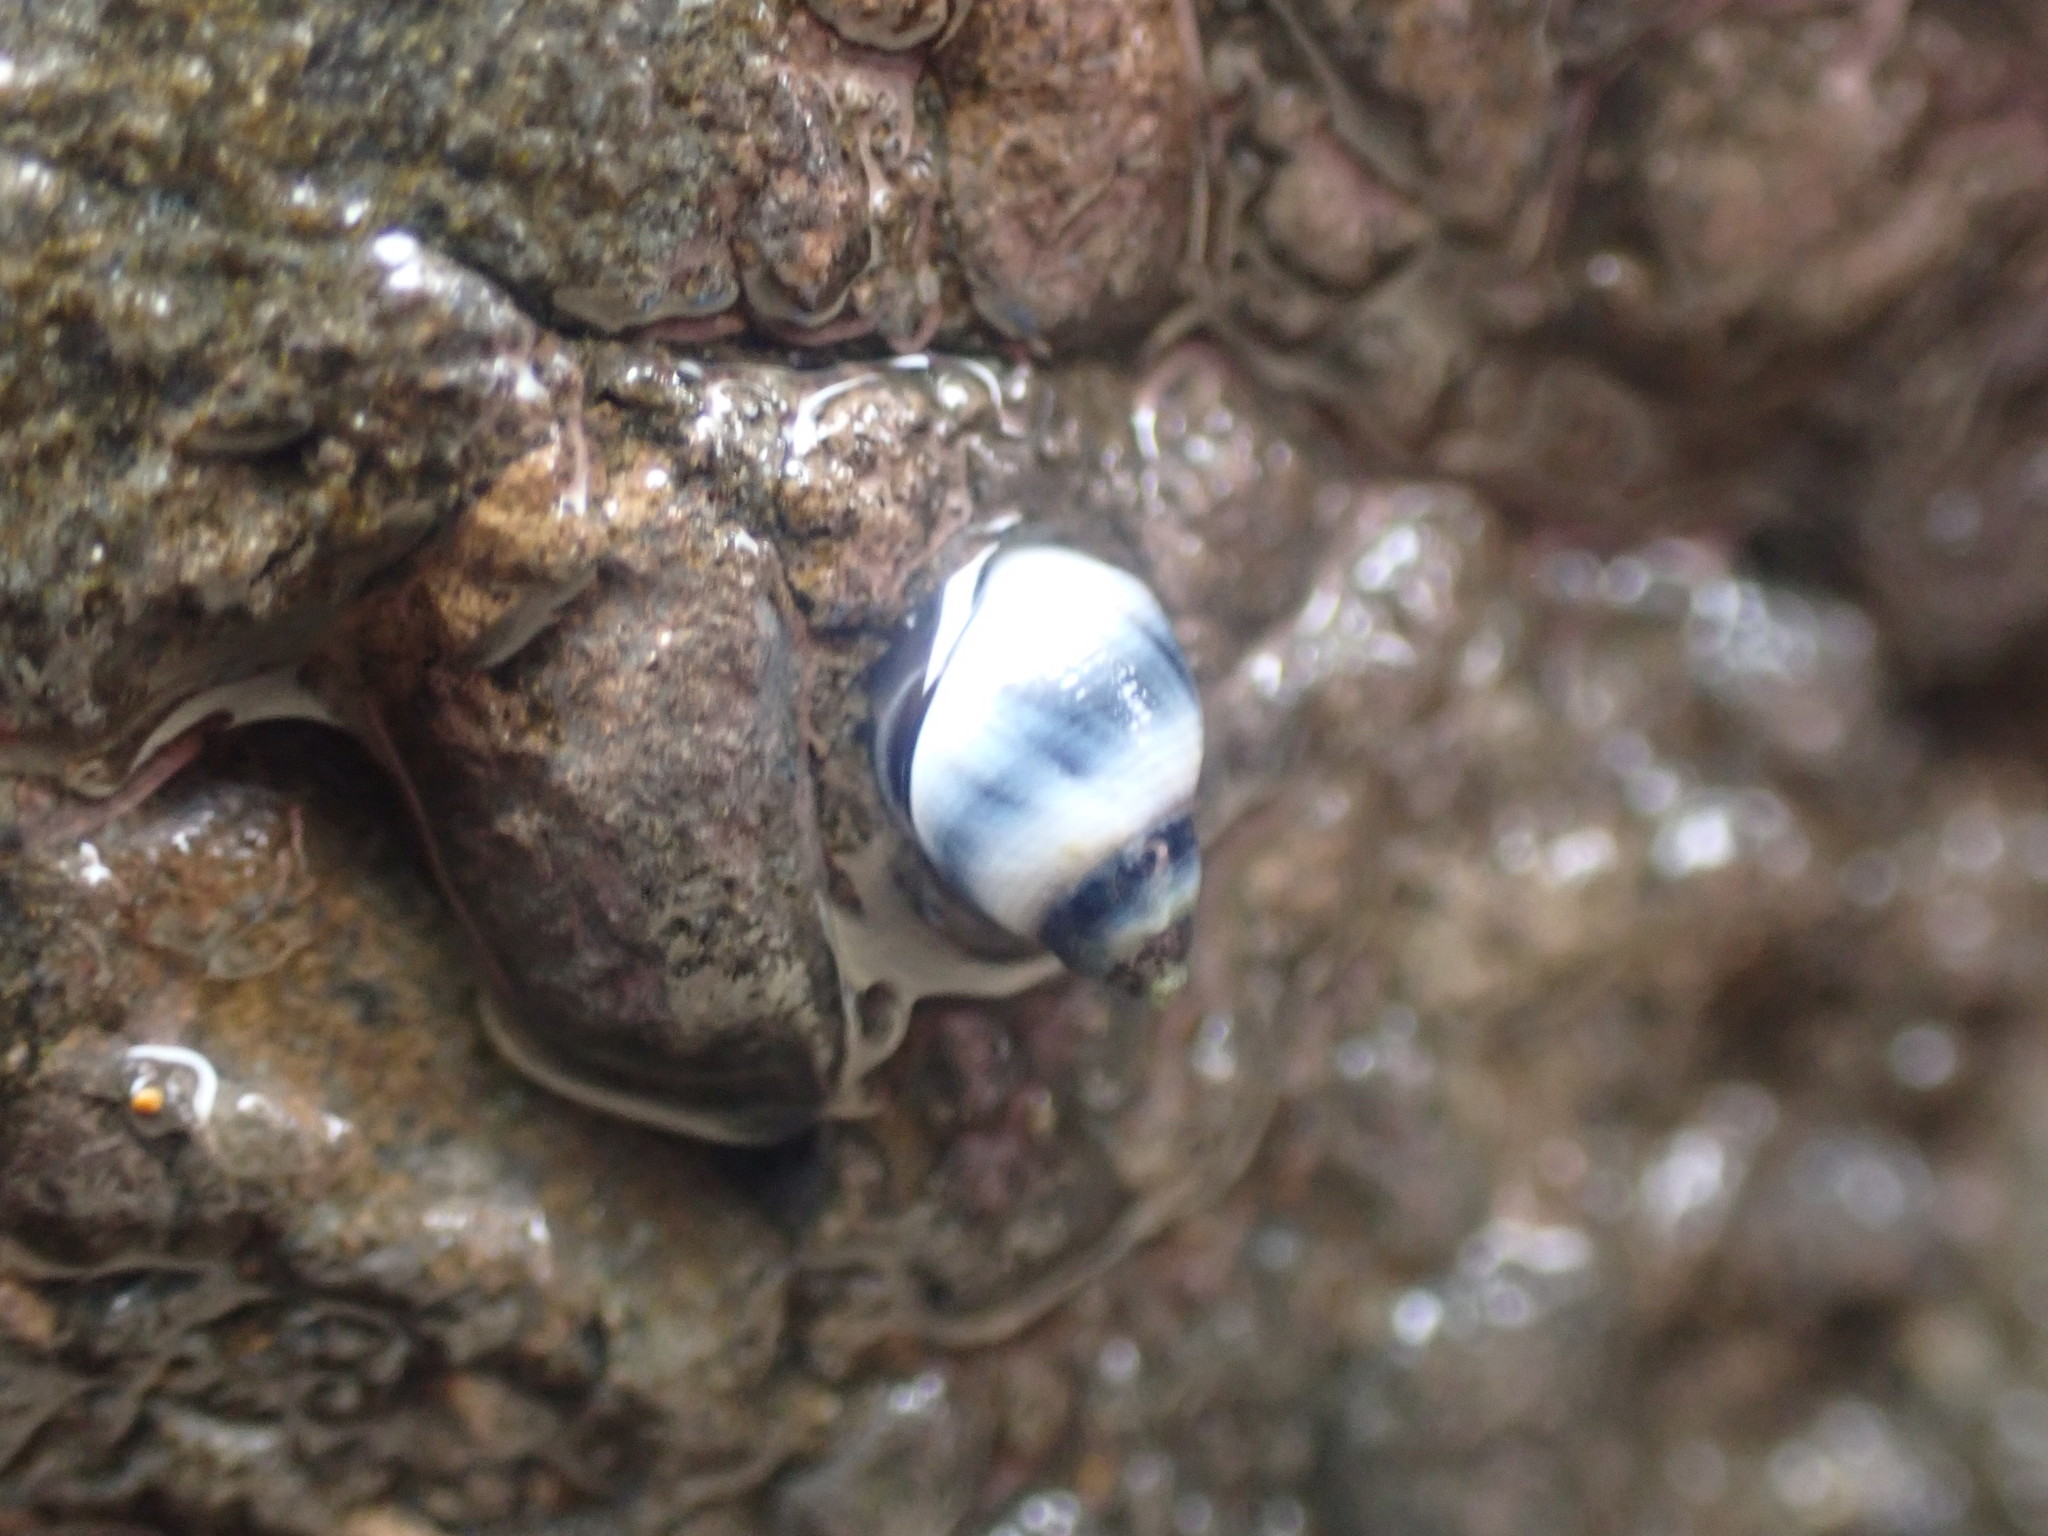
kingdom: Animalia
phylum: Mollusca
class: Gastropoda
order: Littorinimorpha
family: Littorinidae
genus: Austrolittorina
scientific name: Austrolittorina antipodum
